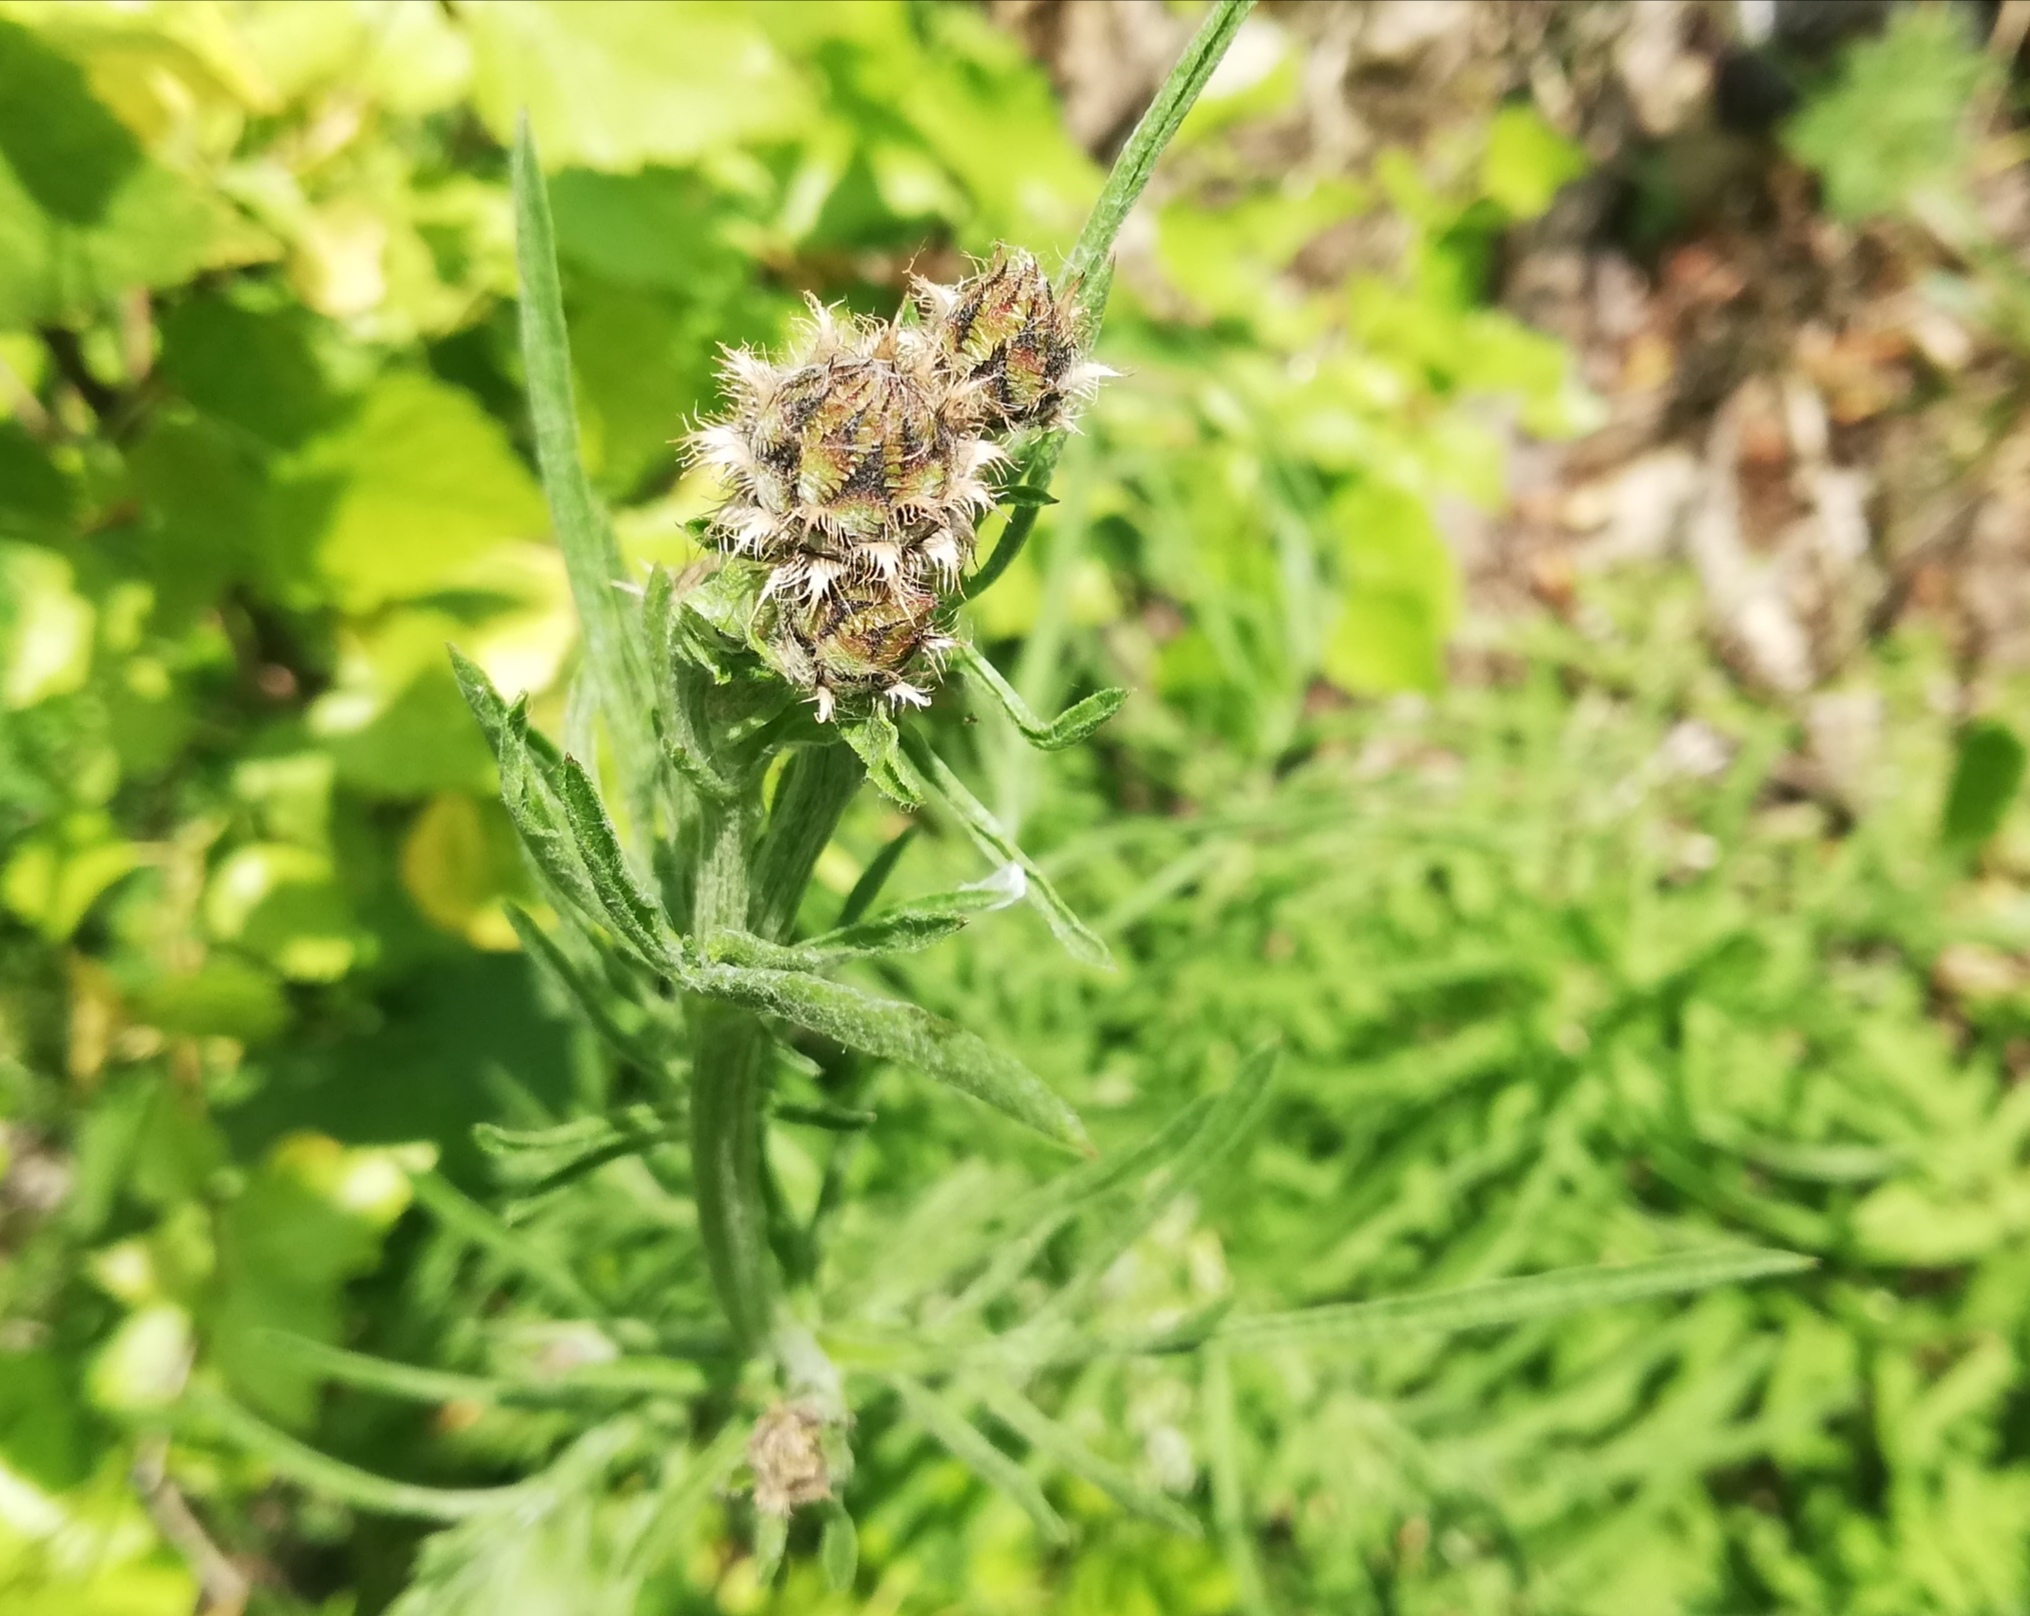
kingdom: Plantae
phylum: Tracheophyta
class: Magnoliopsida
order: Asterales
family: Asteraceae
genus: Centaurea
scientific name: Centaurea scabiosa
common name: Greater knapweed
